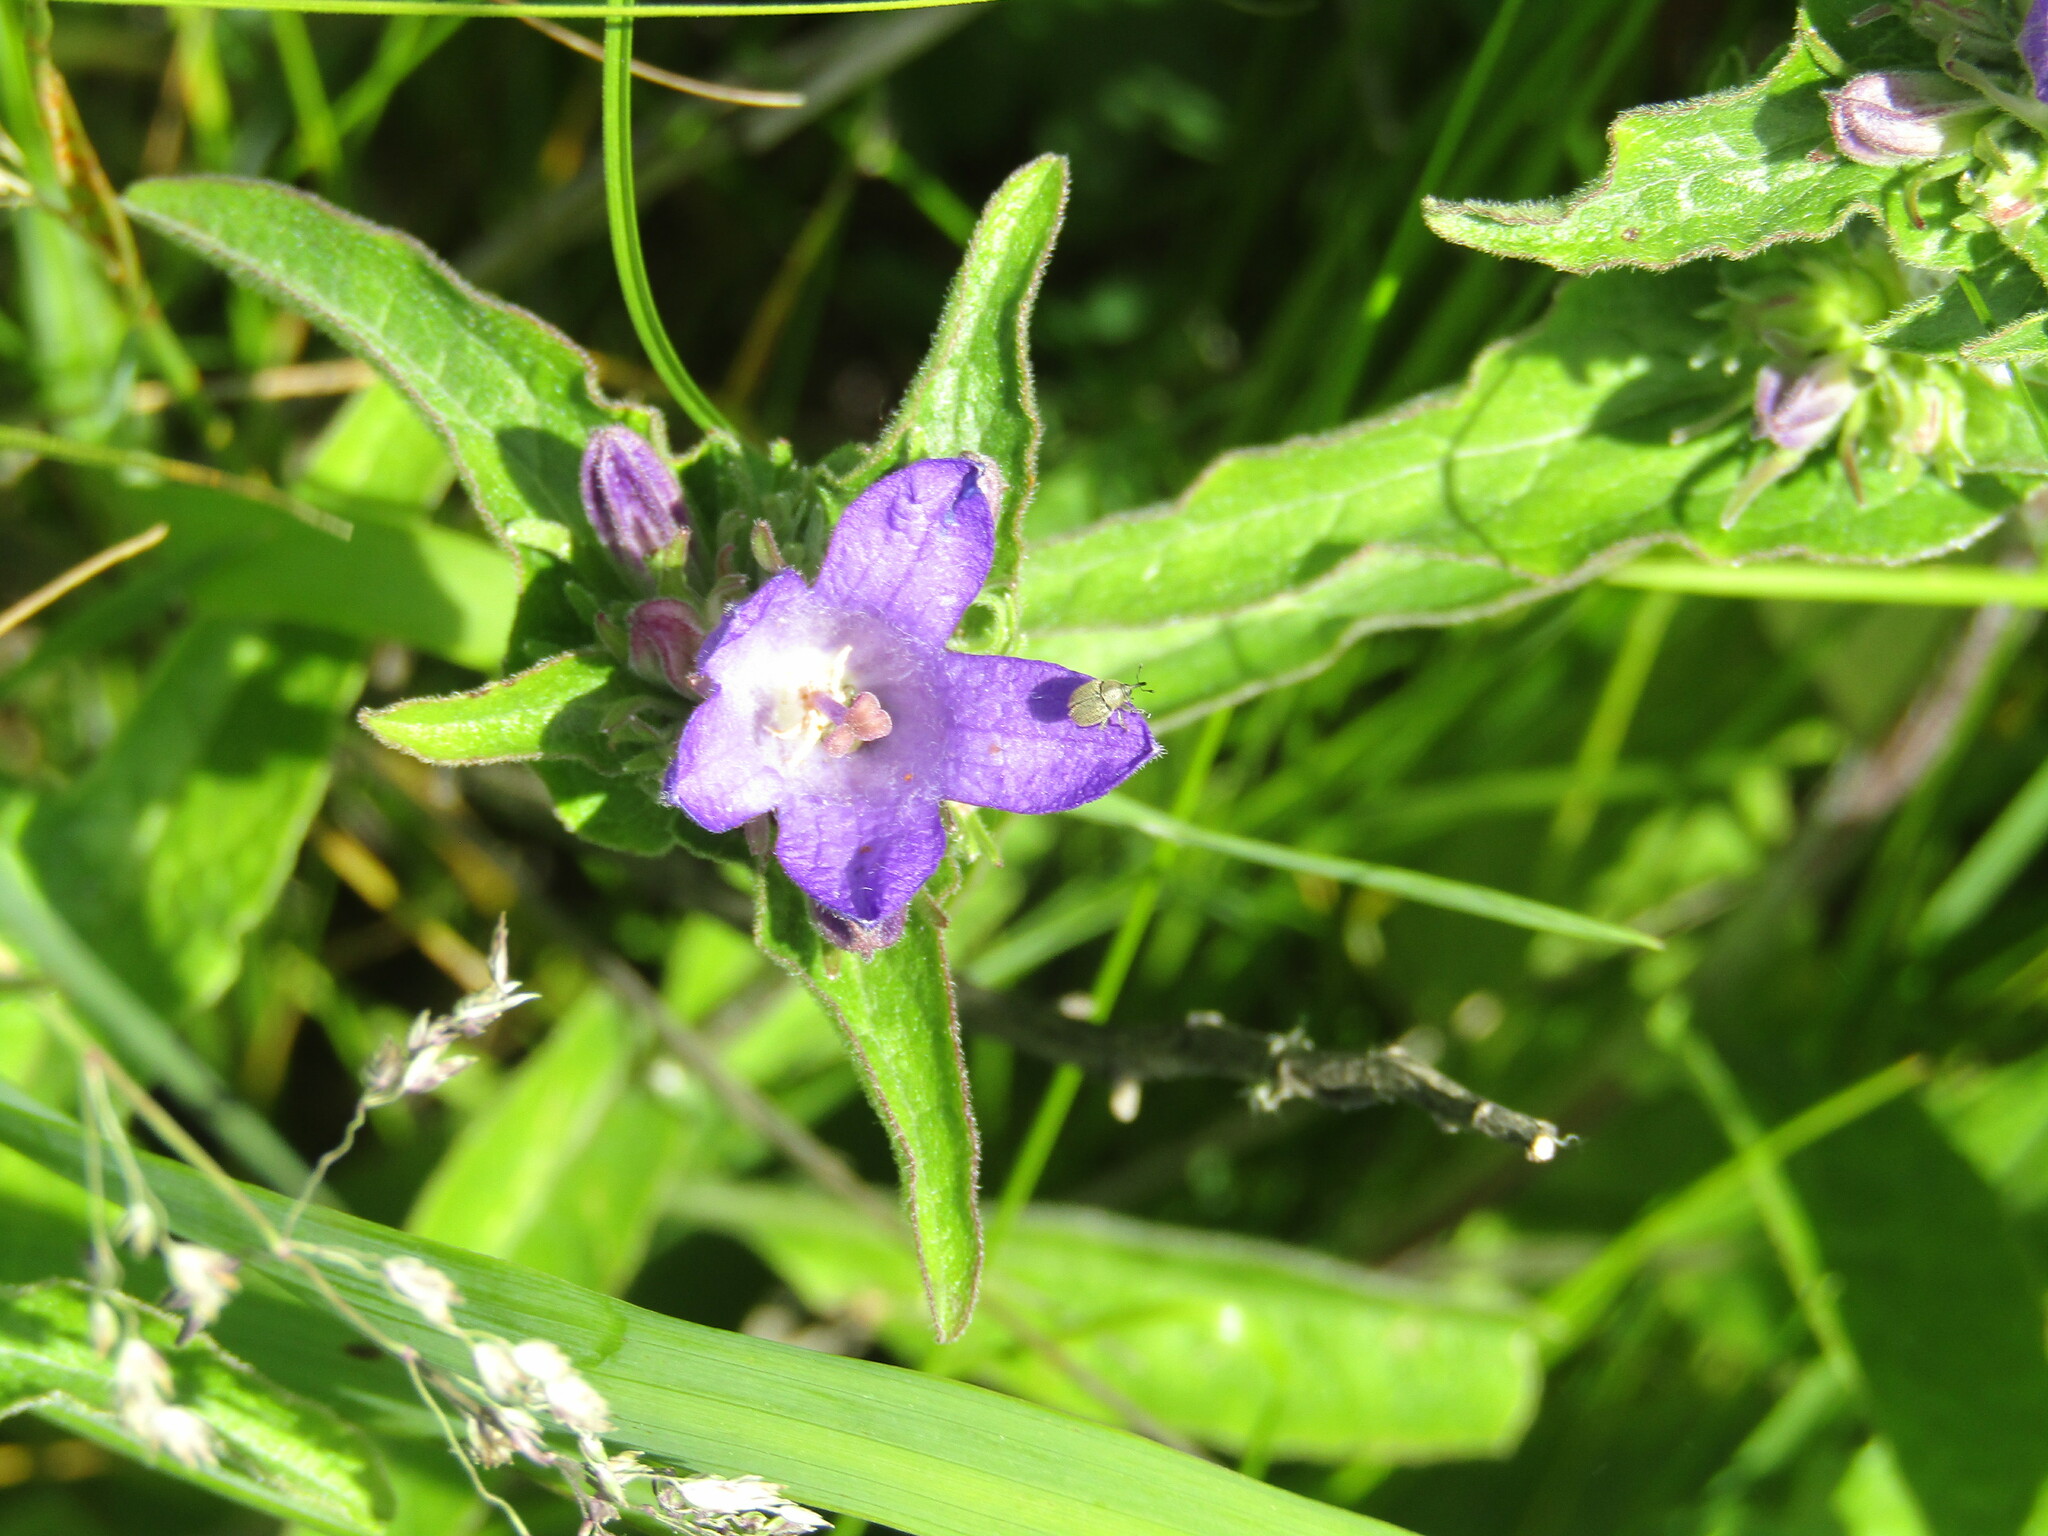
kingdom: Plantae
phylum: Tracheophyta
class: Magnoliopsida
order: Asterales
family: Campanulaceae
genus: Campanula
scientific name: Campanula glomerata
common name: Clustered bellflower
